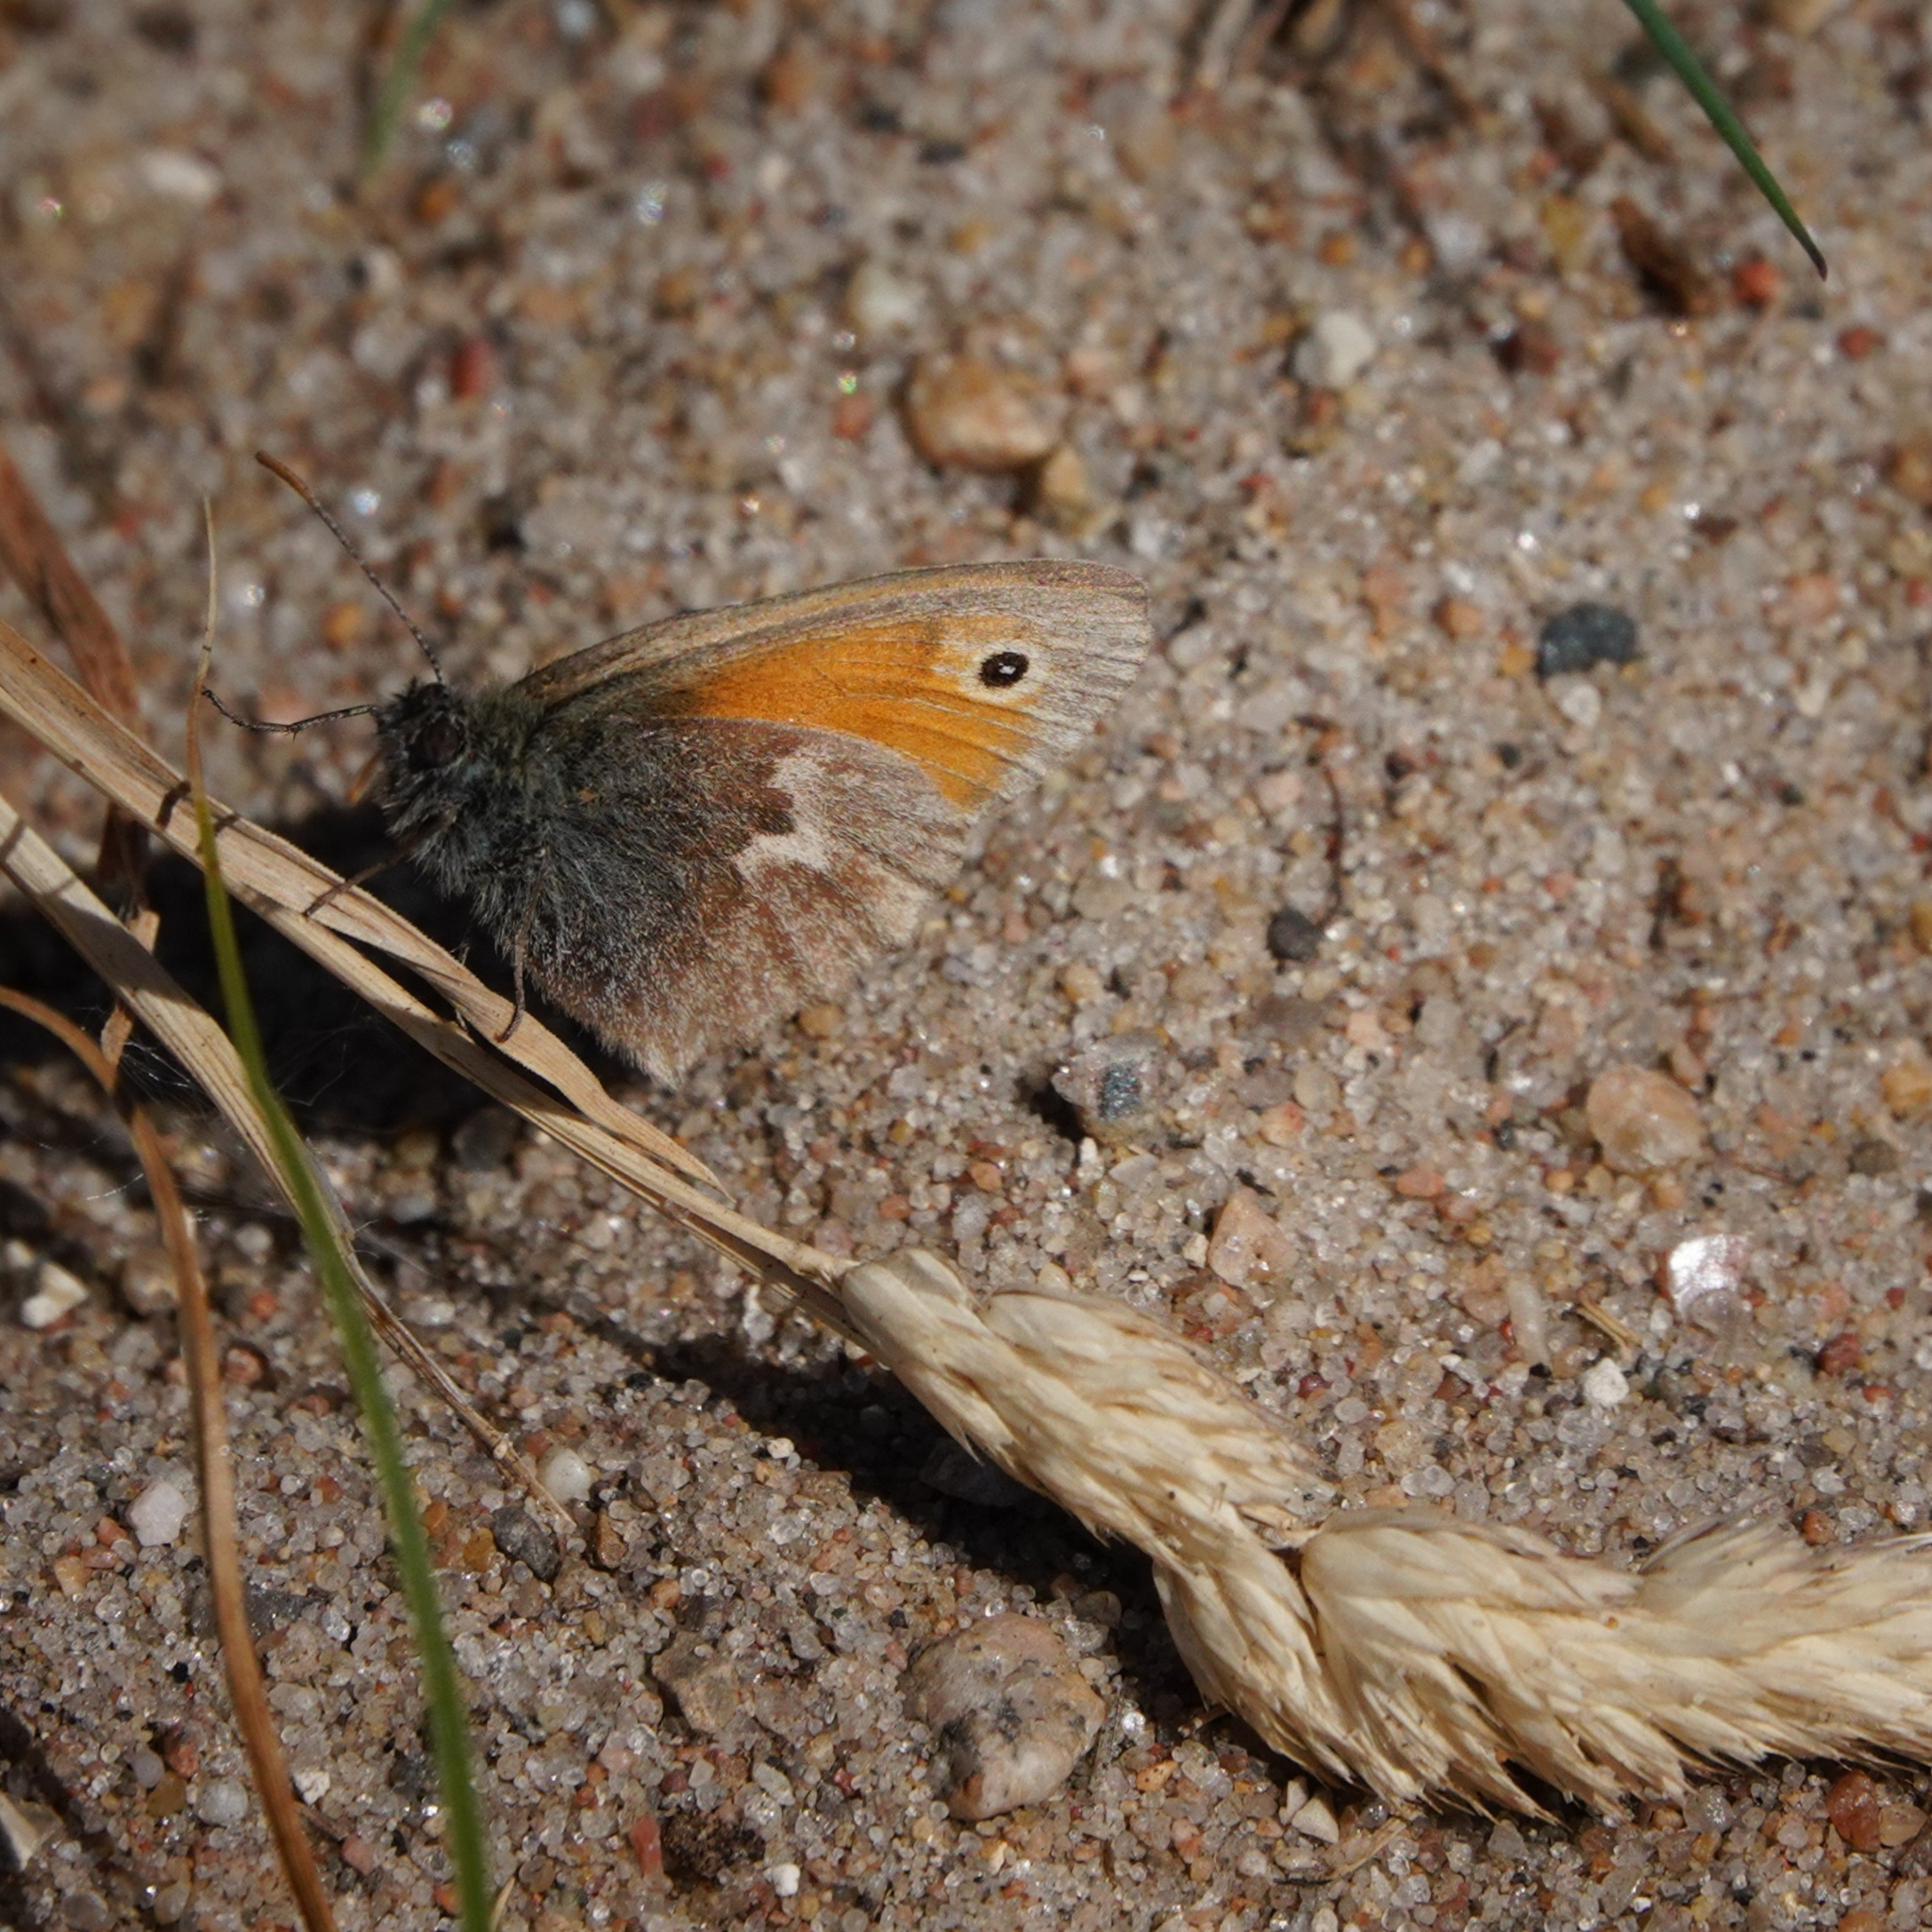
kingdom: Animalia
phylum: Arthropoda
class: Insecta
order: Lepidoptera
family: Nymphalidae
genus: Coenonympha
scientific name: Coenonympha pamphilus
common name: Small heath
